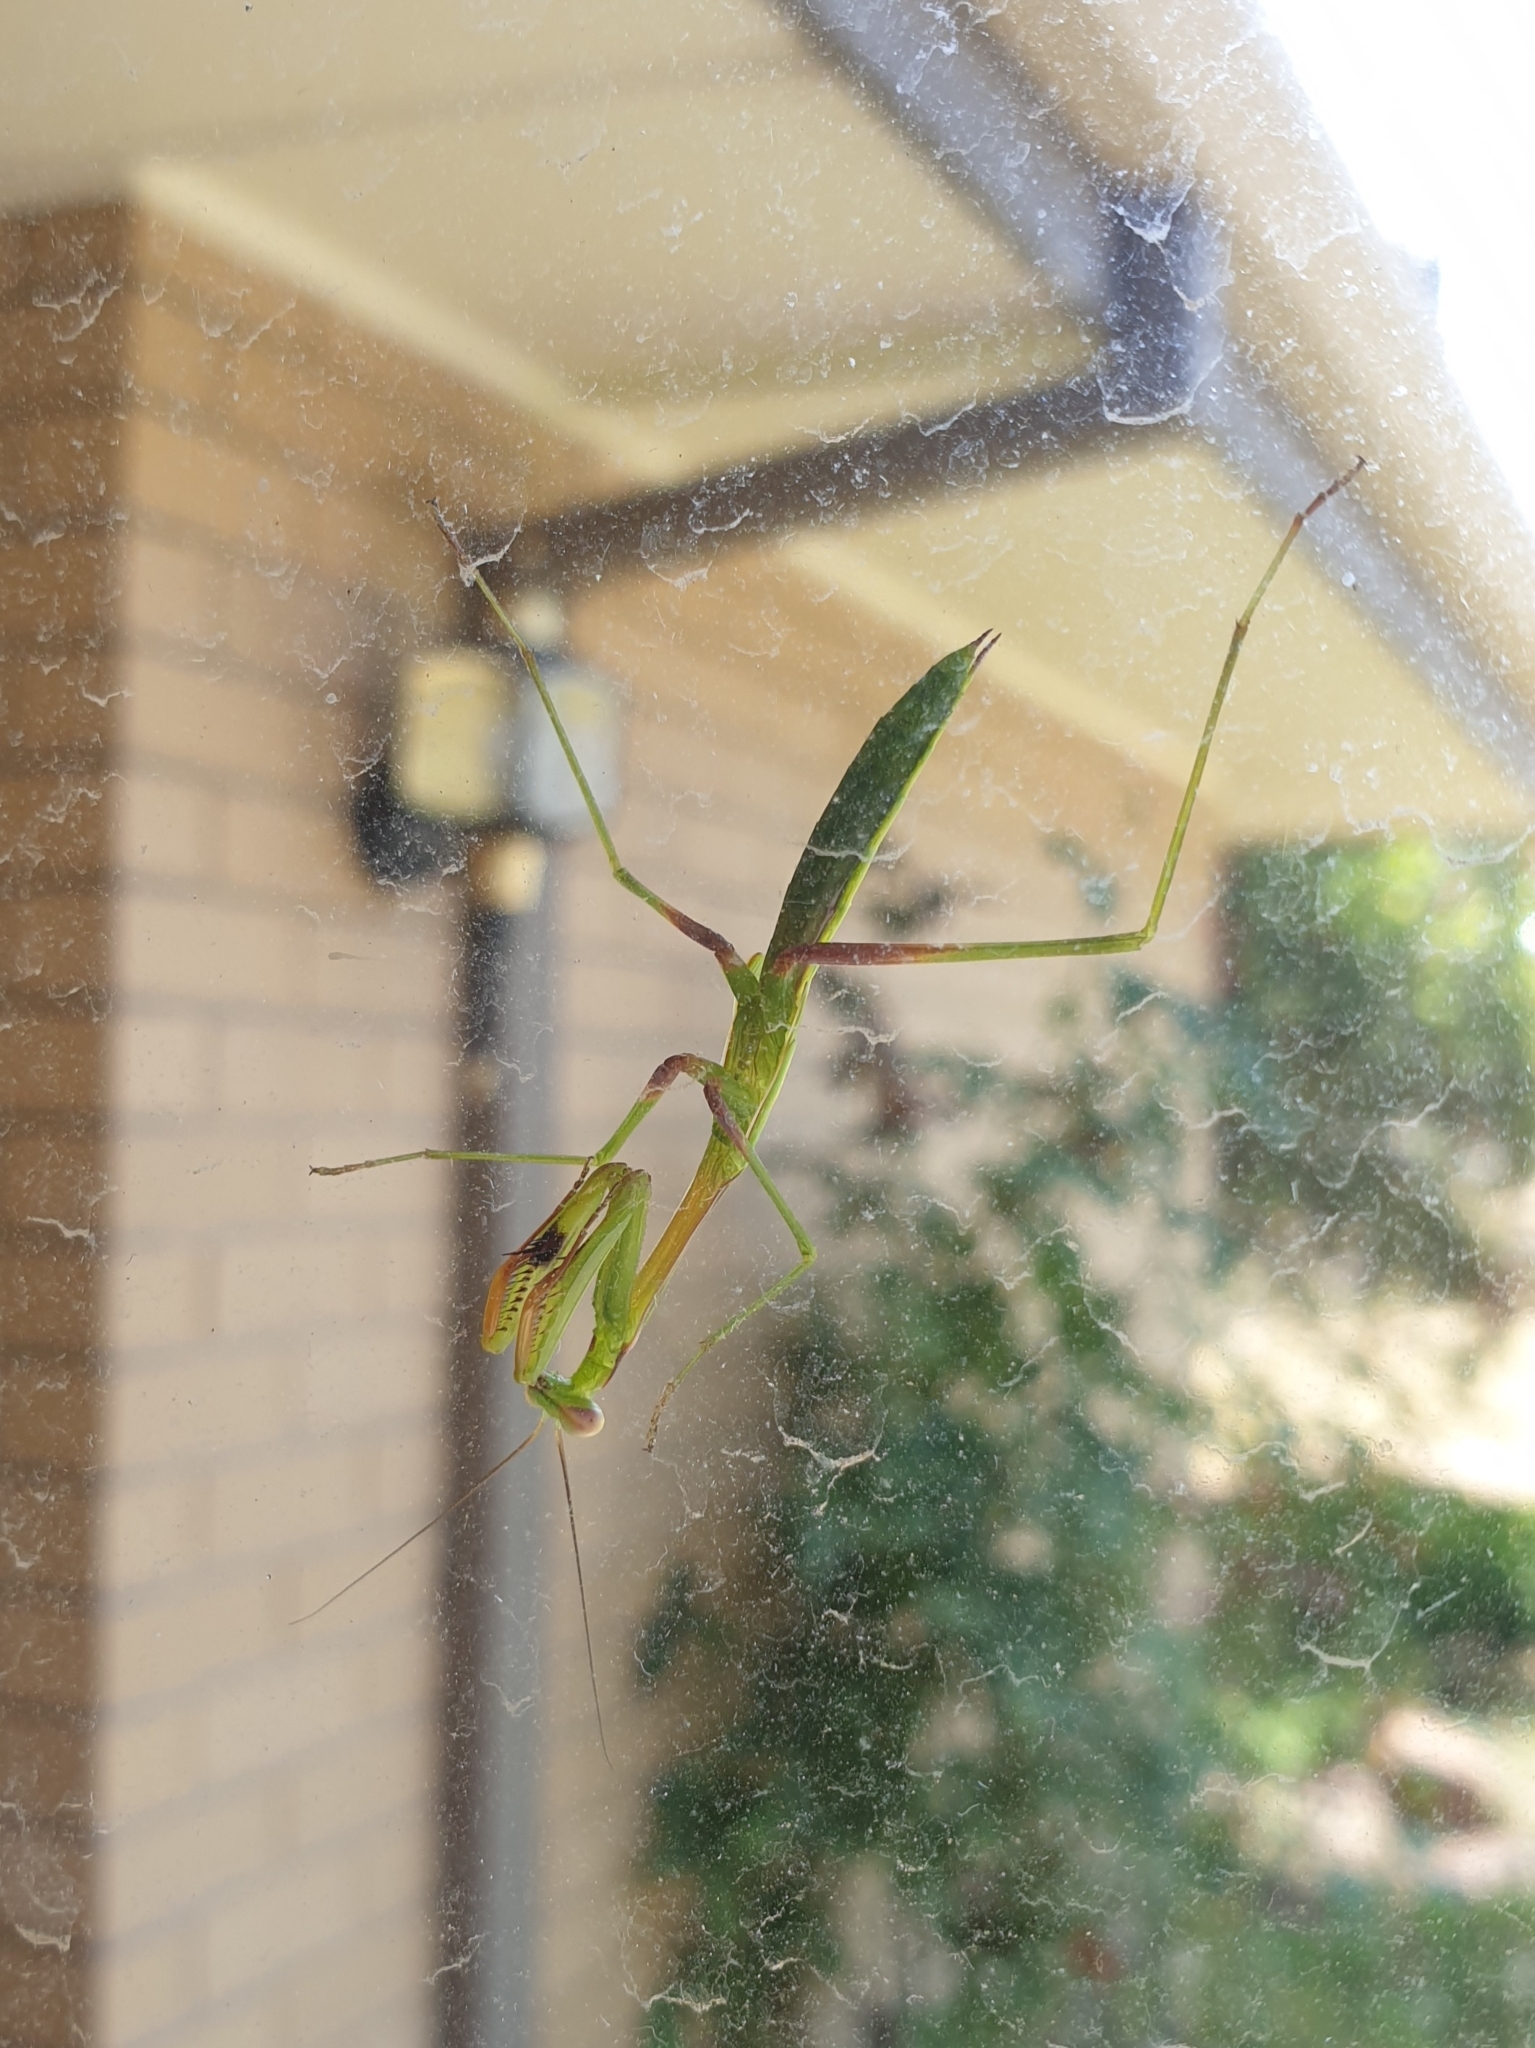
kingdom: Animalia
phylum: Arthropoda
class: Insecta
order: Mantodea
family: Mantidae
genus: Pseudomantis
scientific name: Pseudomantis albofimbriata
